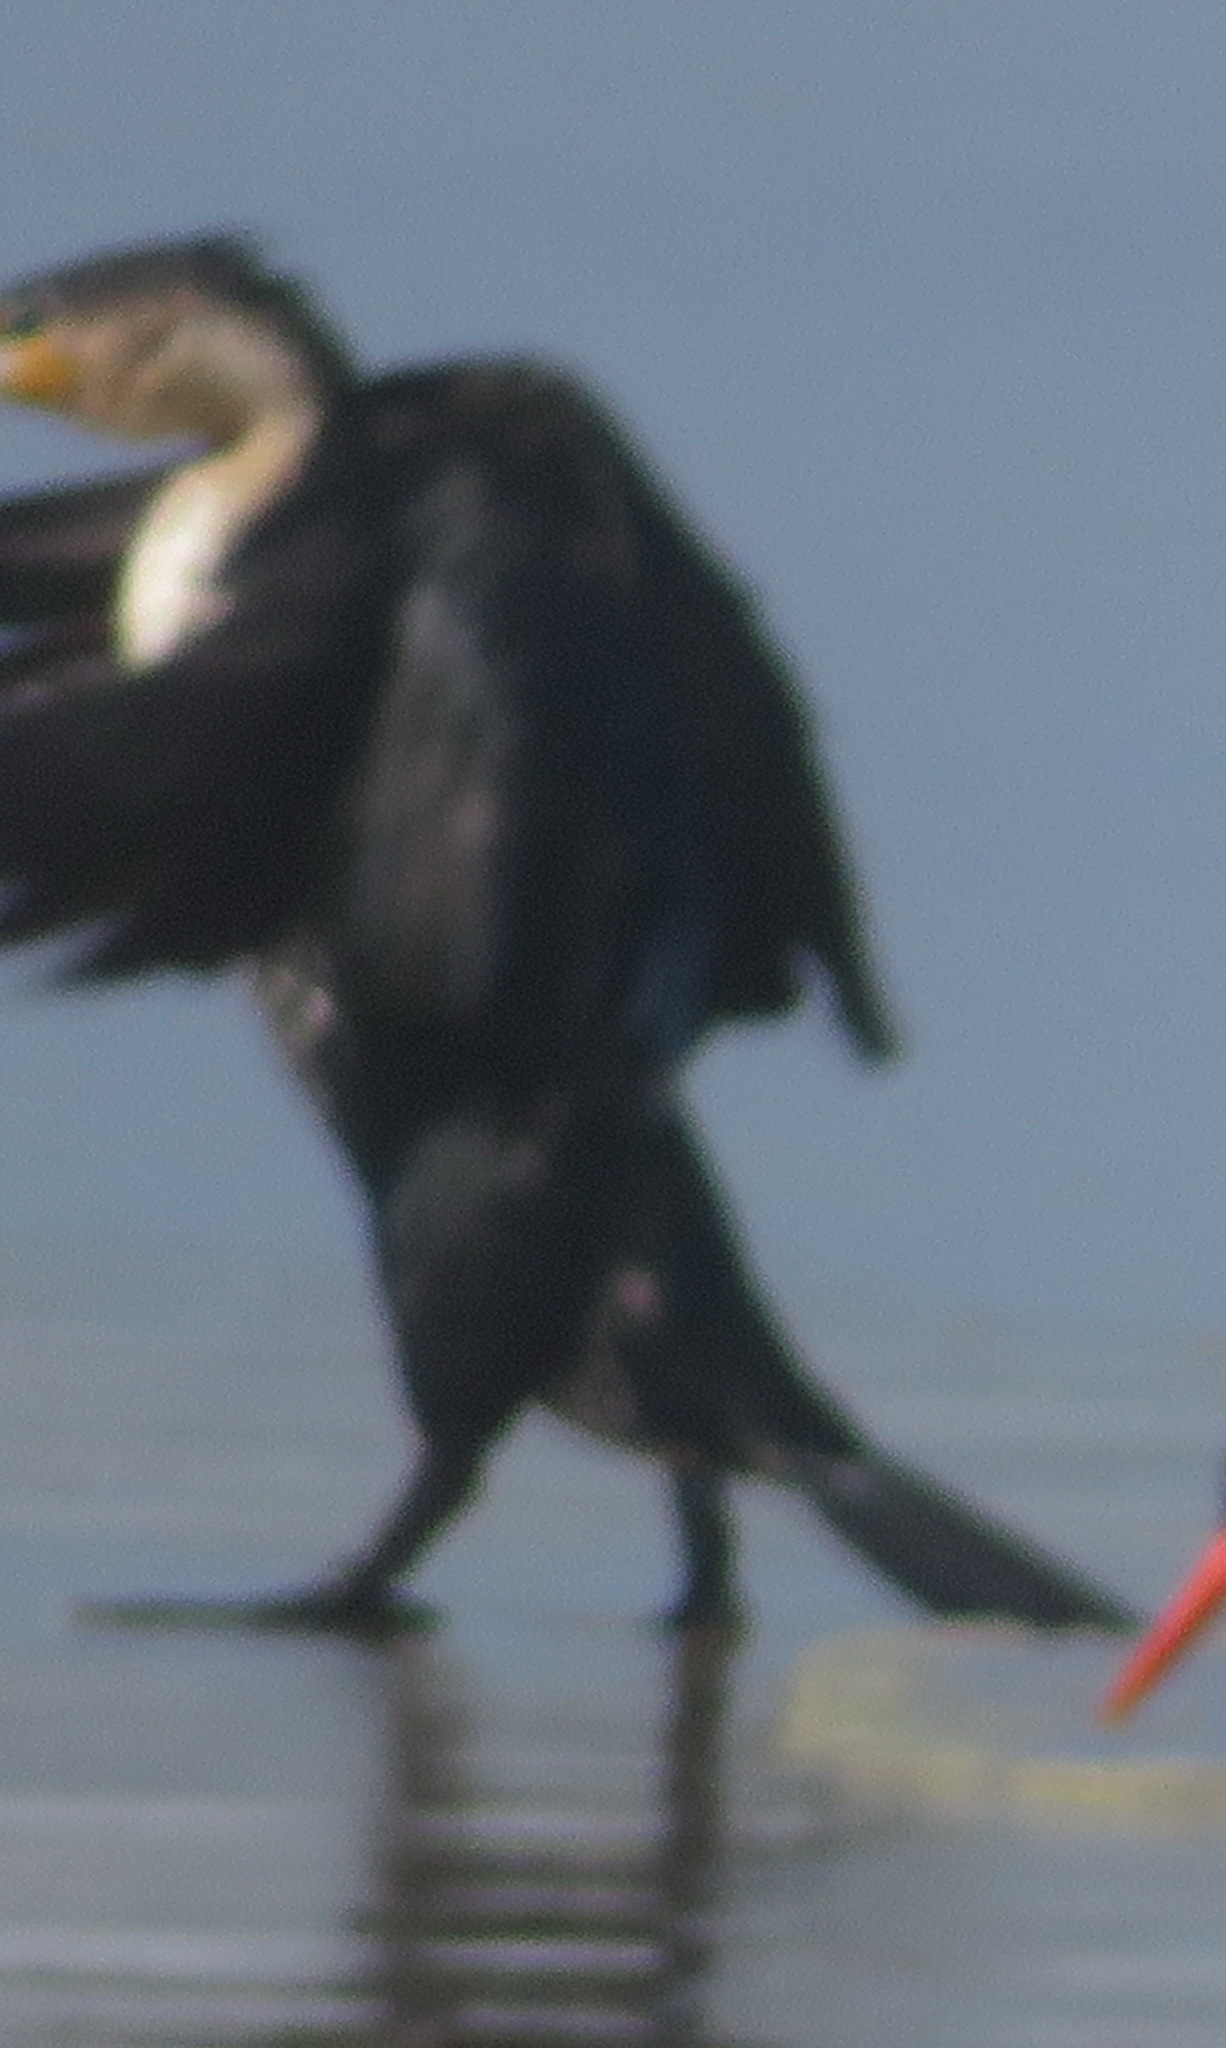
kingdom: Animalia
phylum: Chordata
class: Aves
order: Suliformes
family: Phalacrocoracidae
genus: Phalacrocorax
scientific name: Phalacrocorax carbo
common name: Great cormorant
